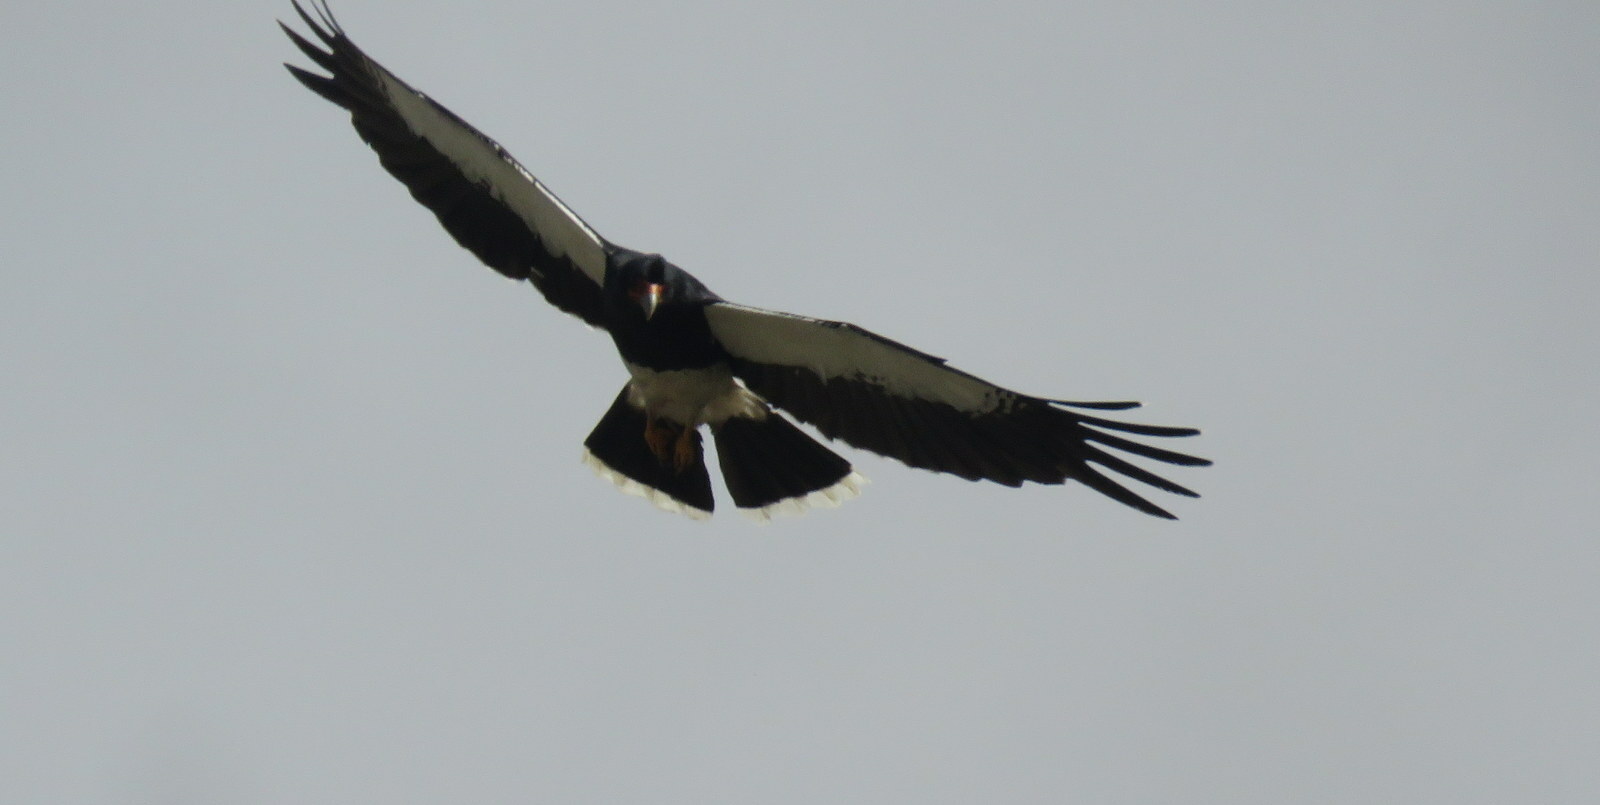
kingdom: Animalia
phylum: Chordata
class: Aves
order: Falconiformes
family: Falconidae
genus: Daptrius
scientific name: Daptrius
